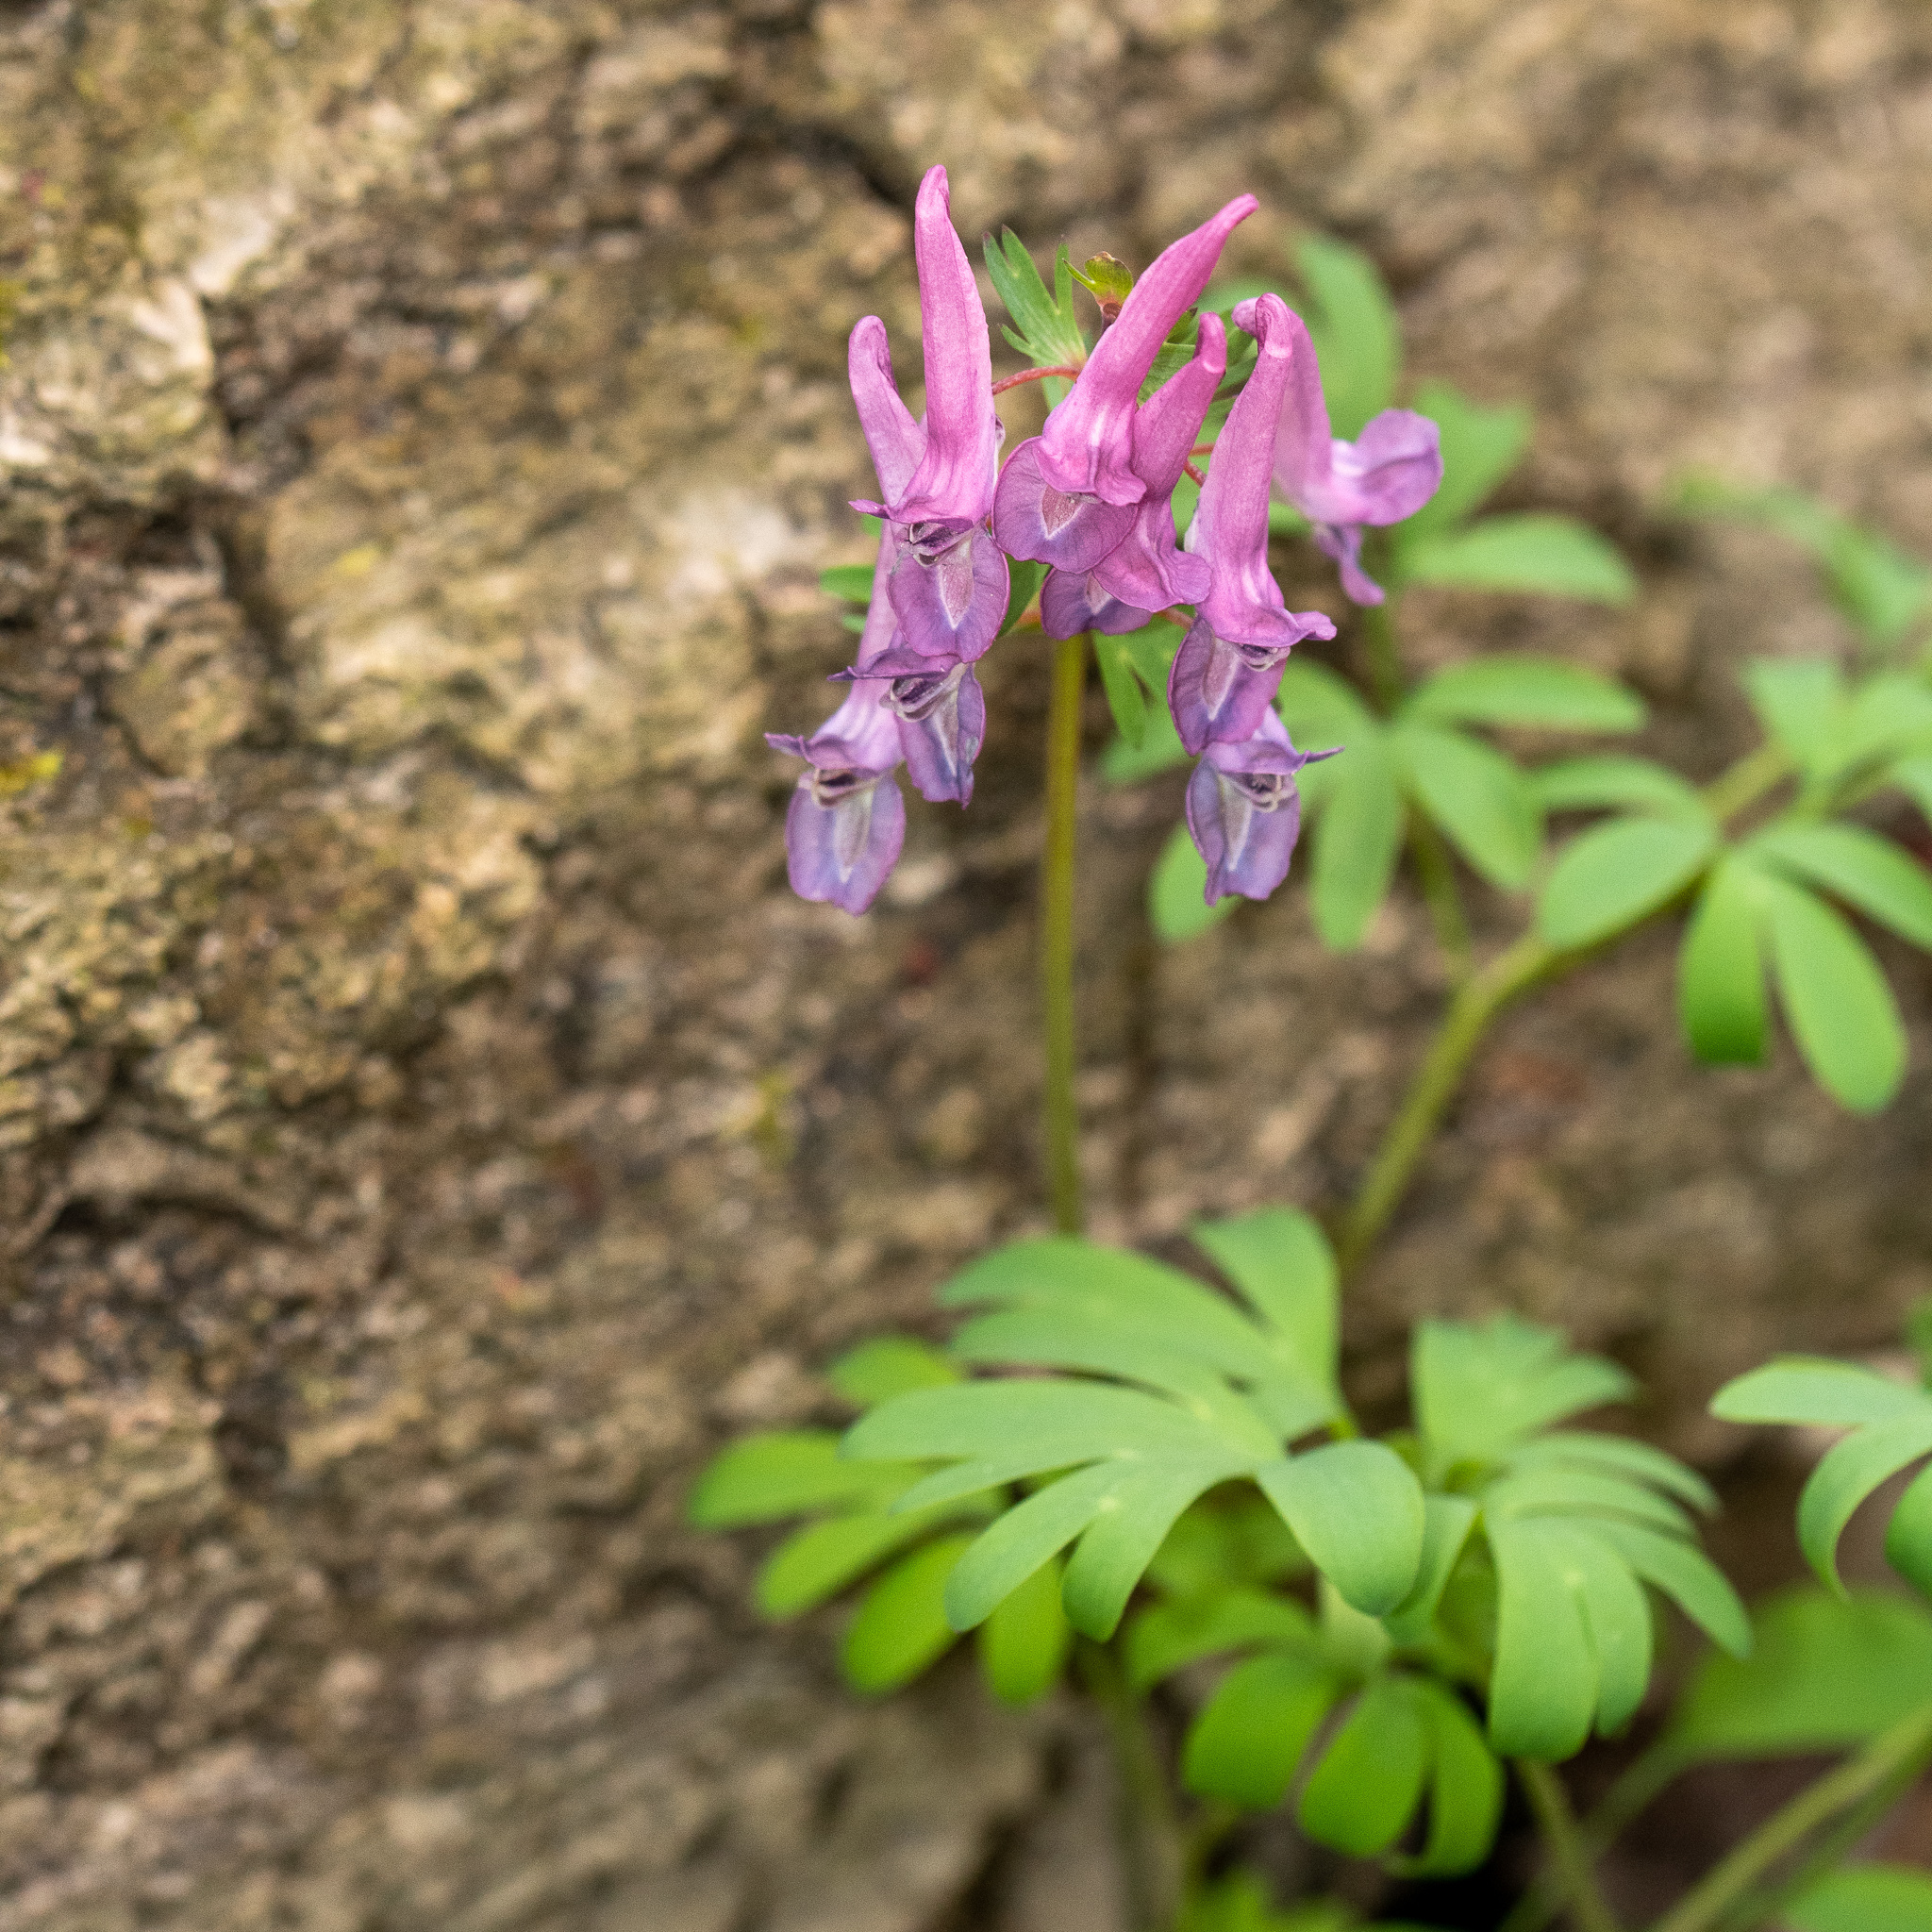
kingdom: Plantae
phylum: Tracheophyta
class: Magnoliopsida
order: Ranunculales
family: Papaveraceae
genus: Corydalis
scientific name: Corydalis solida
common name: Bird-in-a-bush
